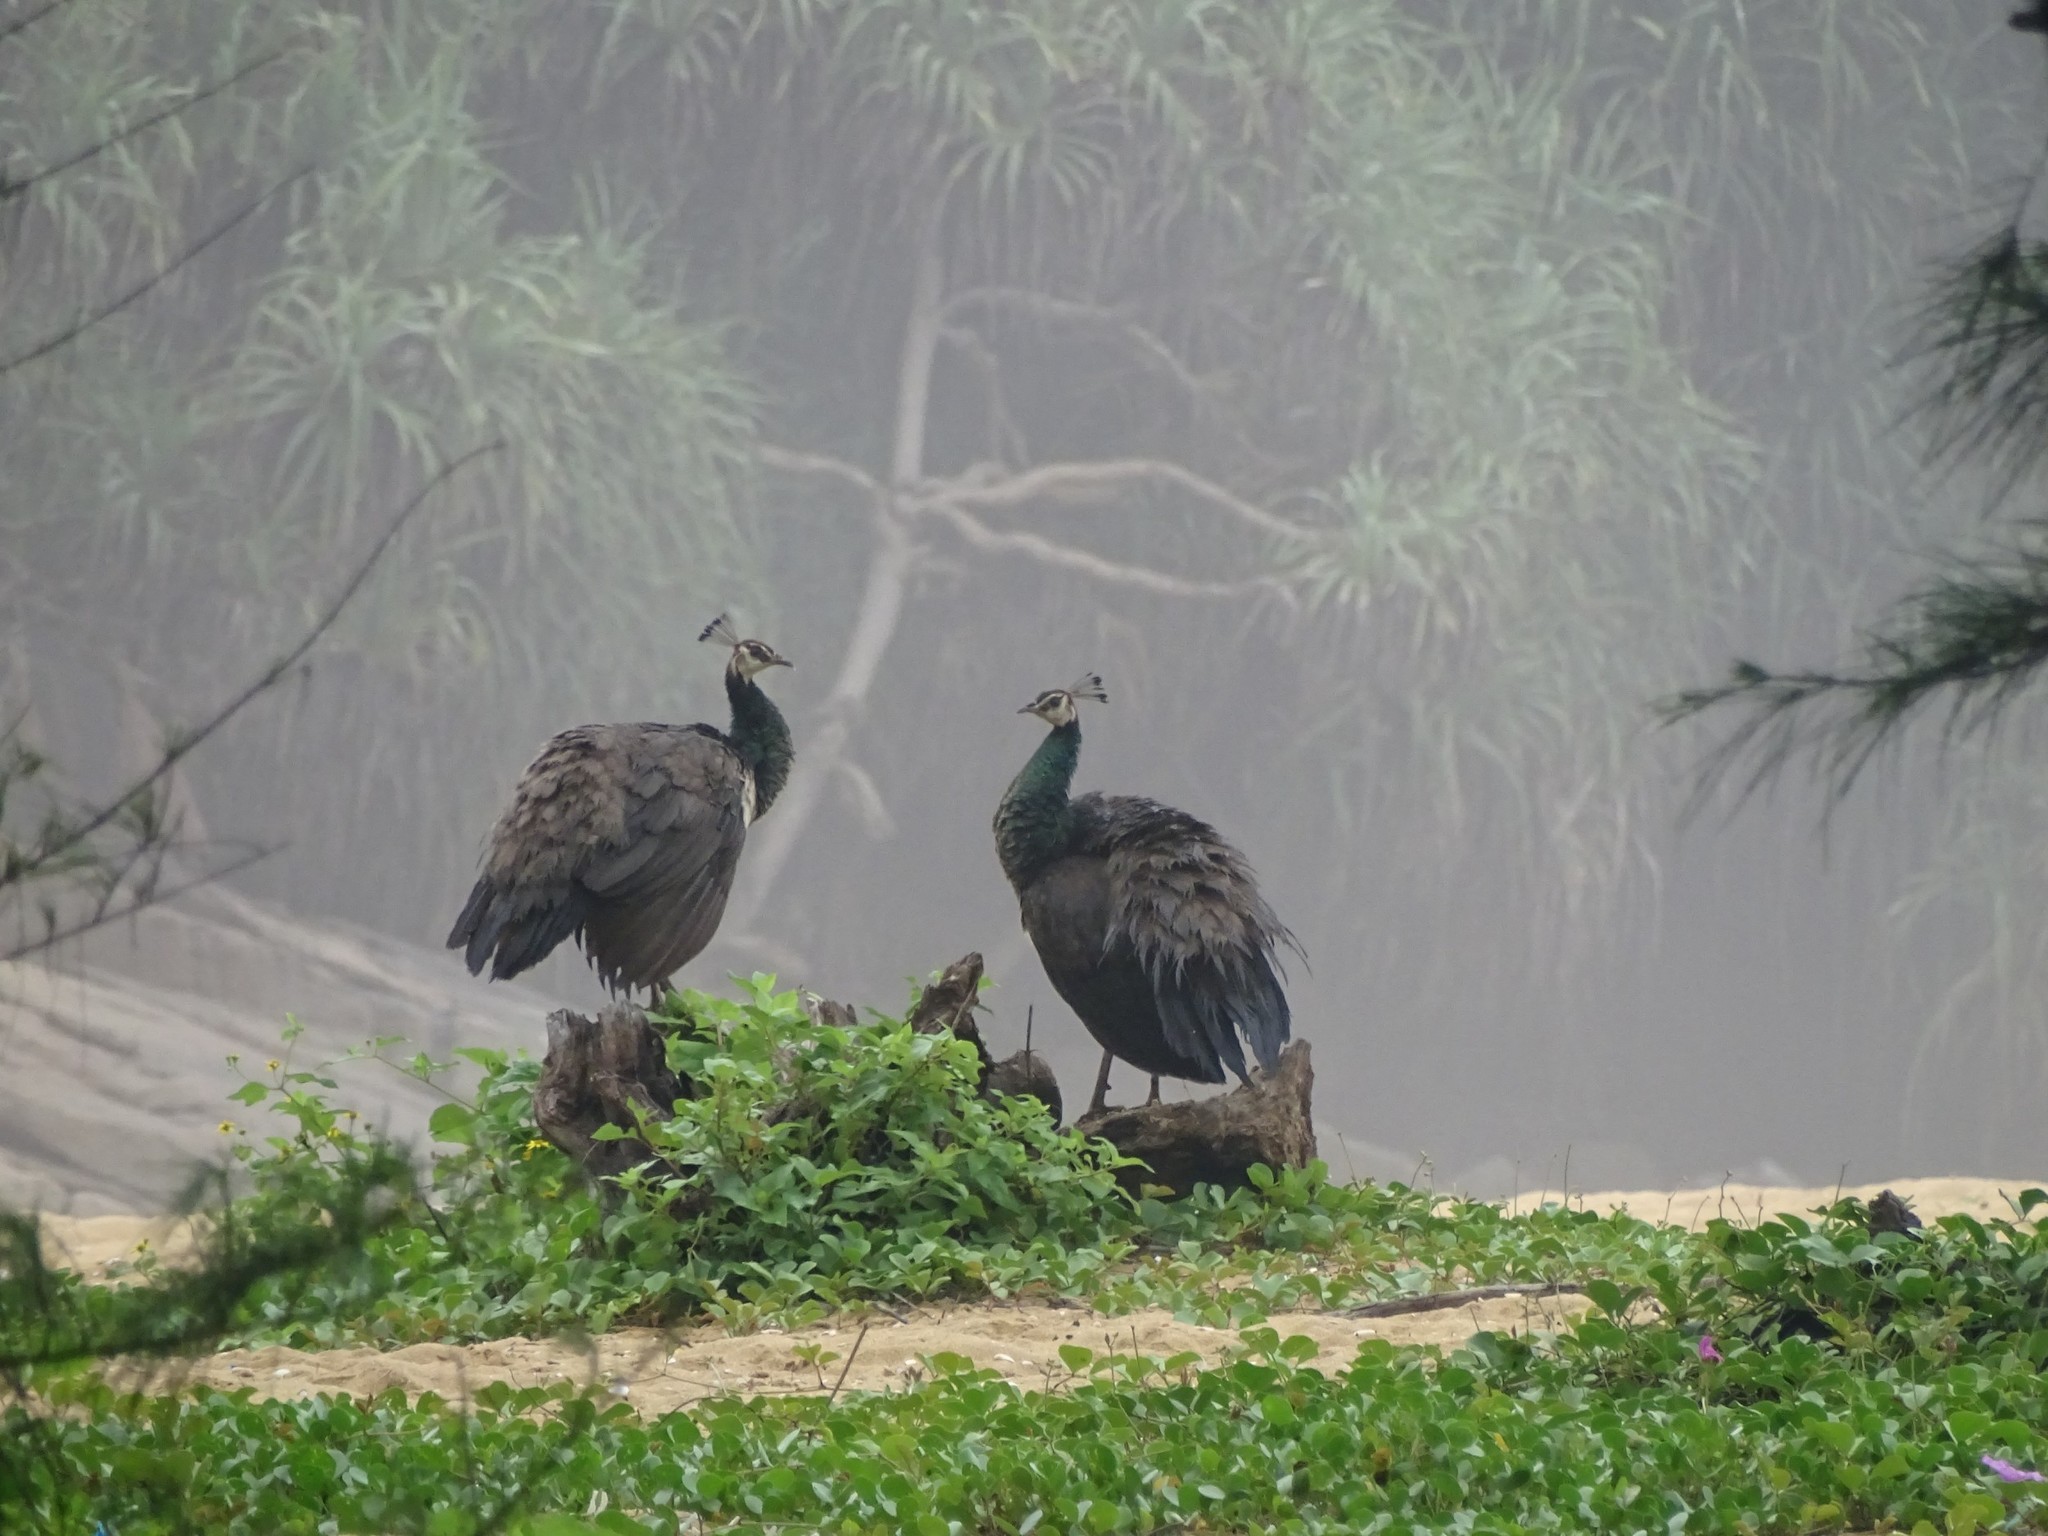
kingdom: Animalia
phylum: Chordata
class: Aves
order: Galliformes
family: Phasianidae
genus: Pavo
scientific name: Pavo cristatus
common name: Indian peafowl
